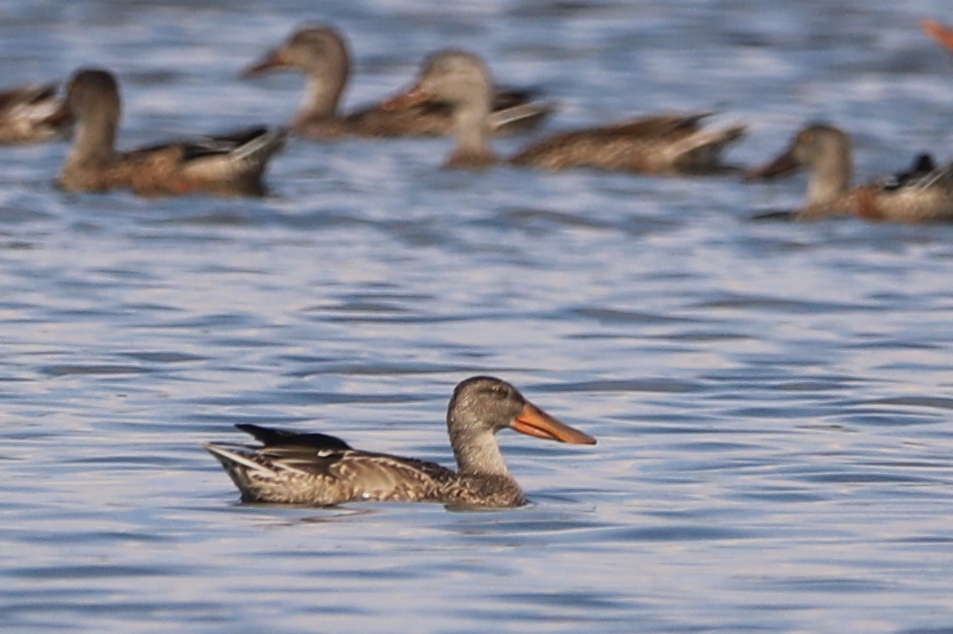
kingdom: Animalia
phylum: Chordata
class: Aves
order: Anseriformes
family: Anatidae
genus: Spatula
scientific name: Spatula clypeata
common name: Northern shoveler
